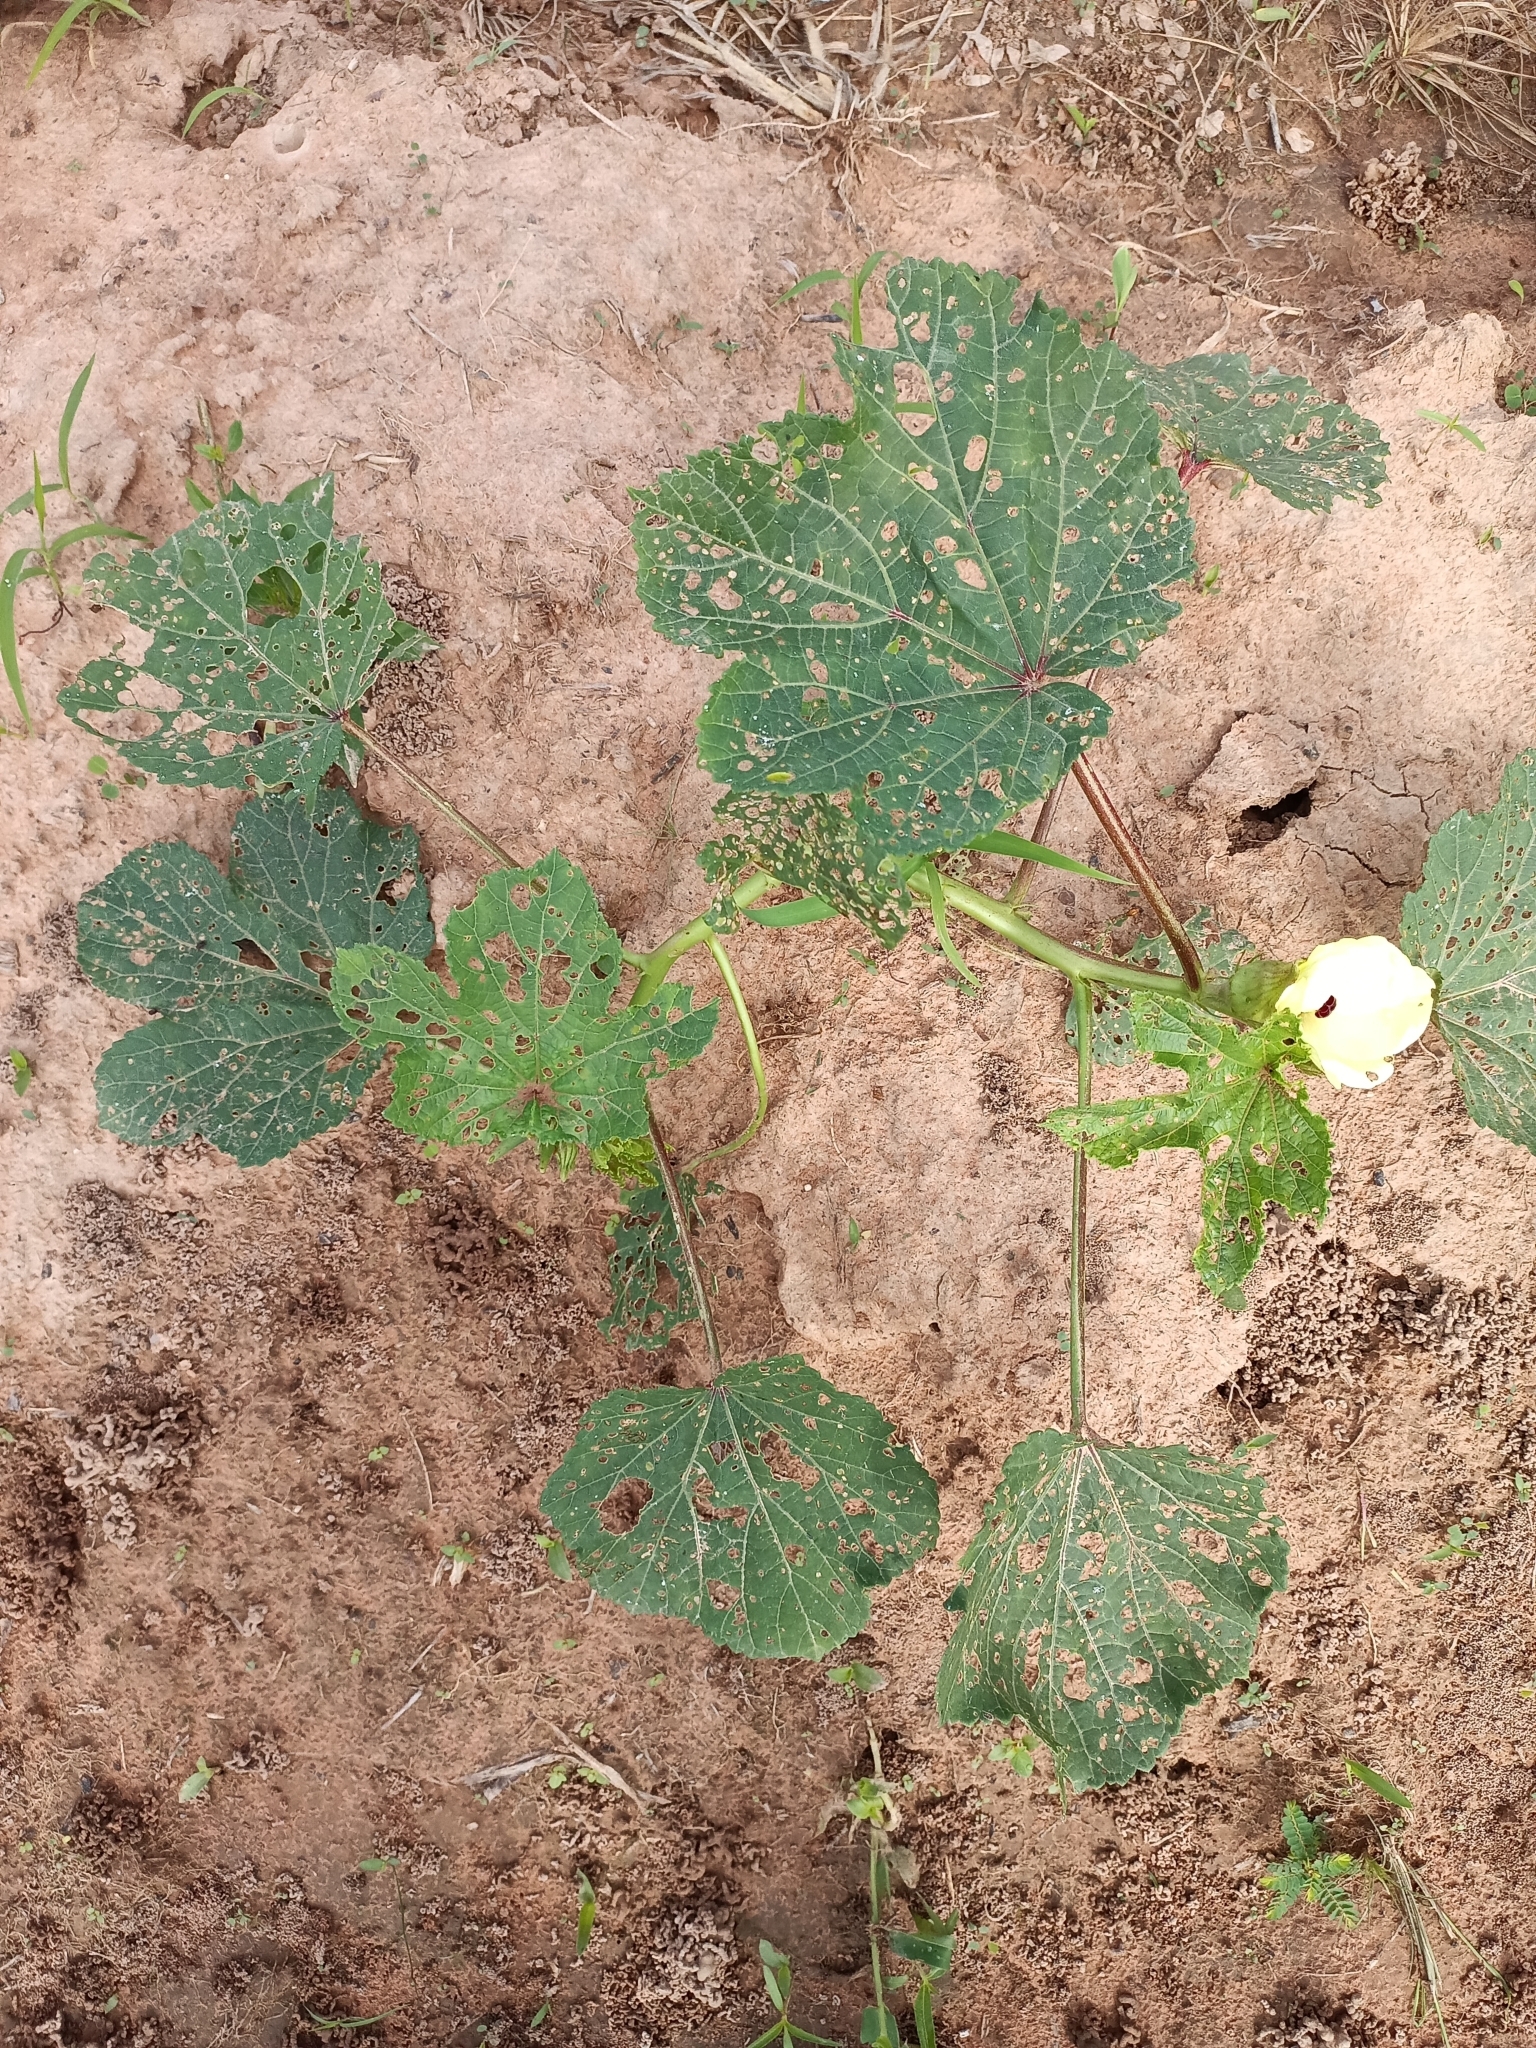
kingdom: Plantae
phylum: Tracheophyta
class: Magnoliopsida
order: Malvales
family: Malvaceae
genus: Abelmoschus
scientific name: Abelmoschus esculentus
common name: Okra
